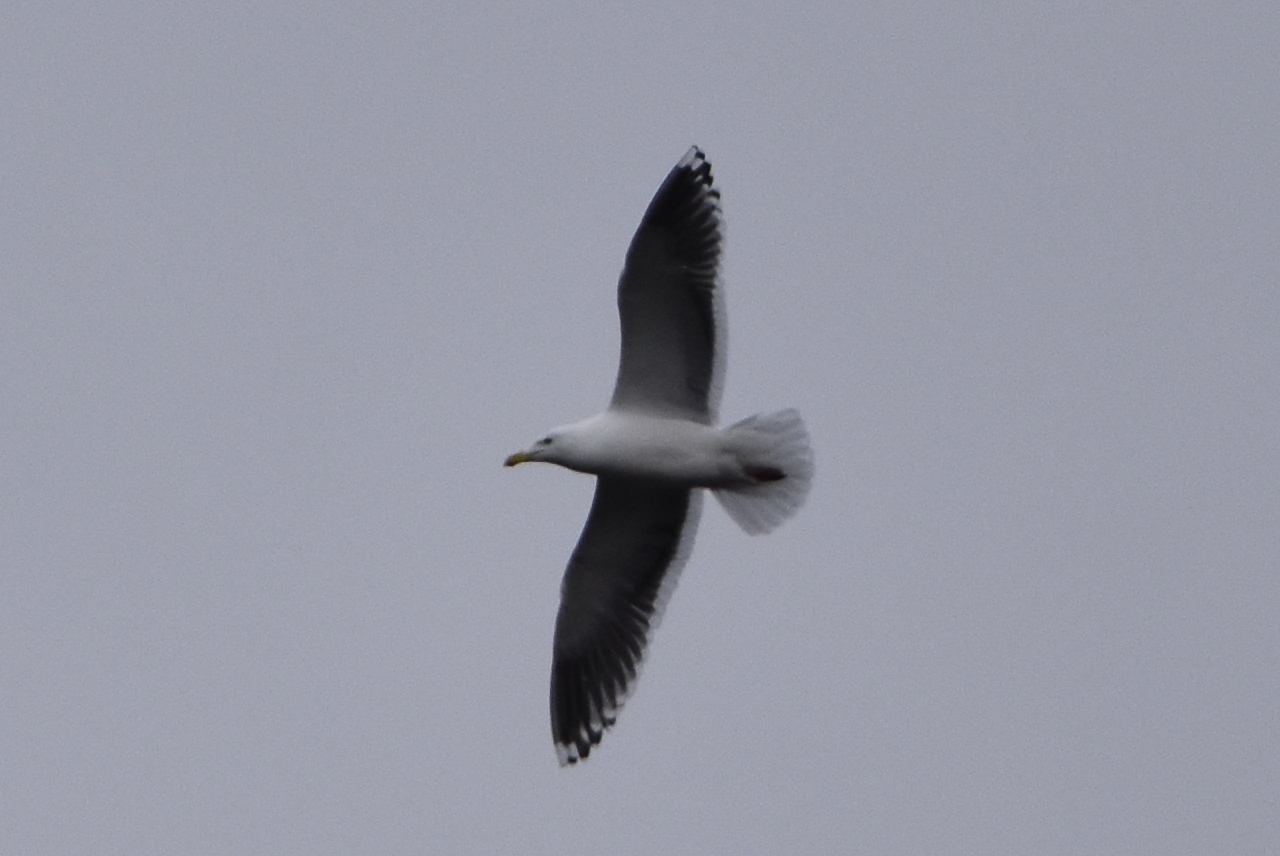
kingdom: Animalia
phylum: Chordata
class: Aves
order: Charadriiformes
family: Laridae
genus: Larus
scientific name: Larus schistisagus
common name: Slaty-backed gull
